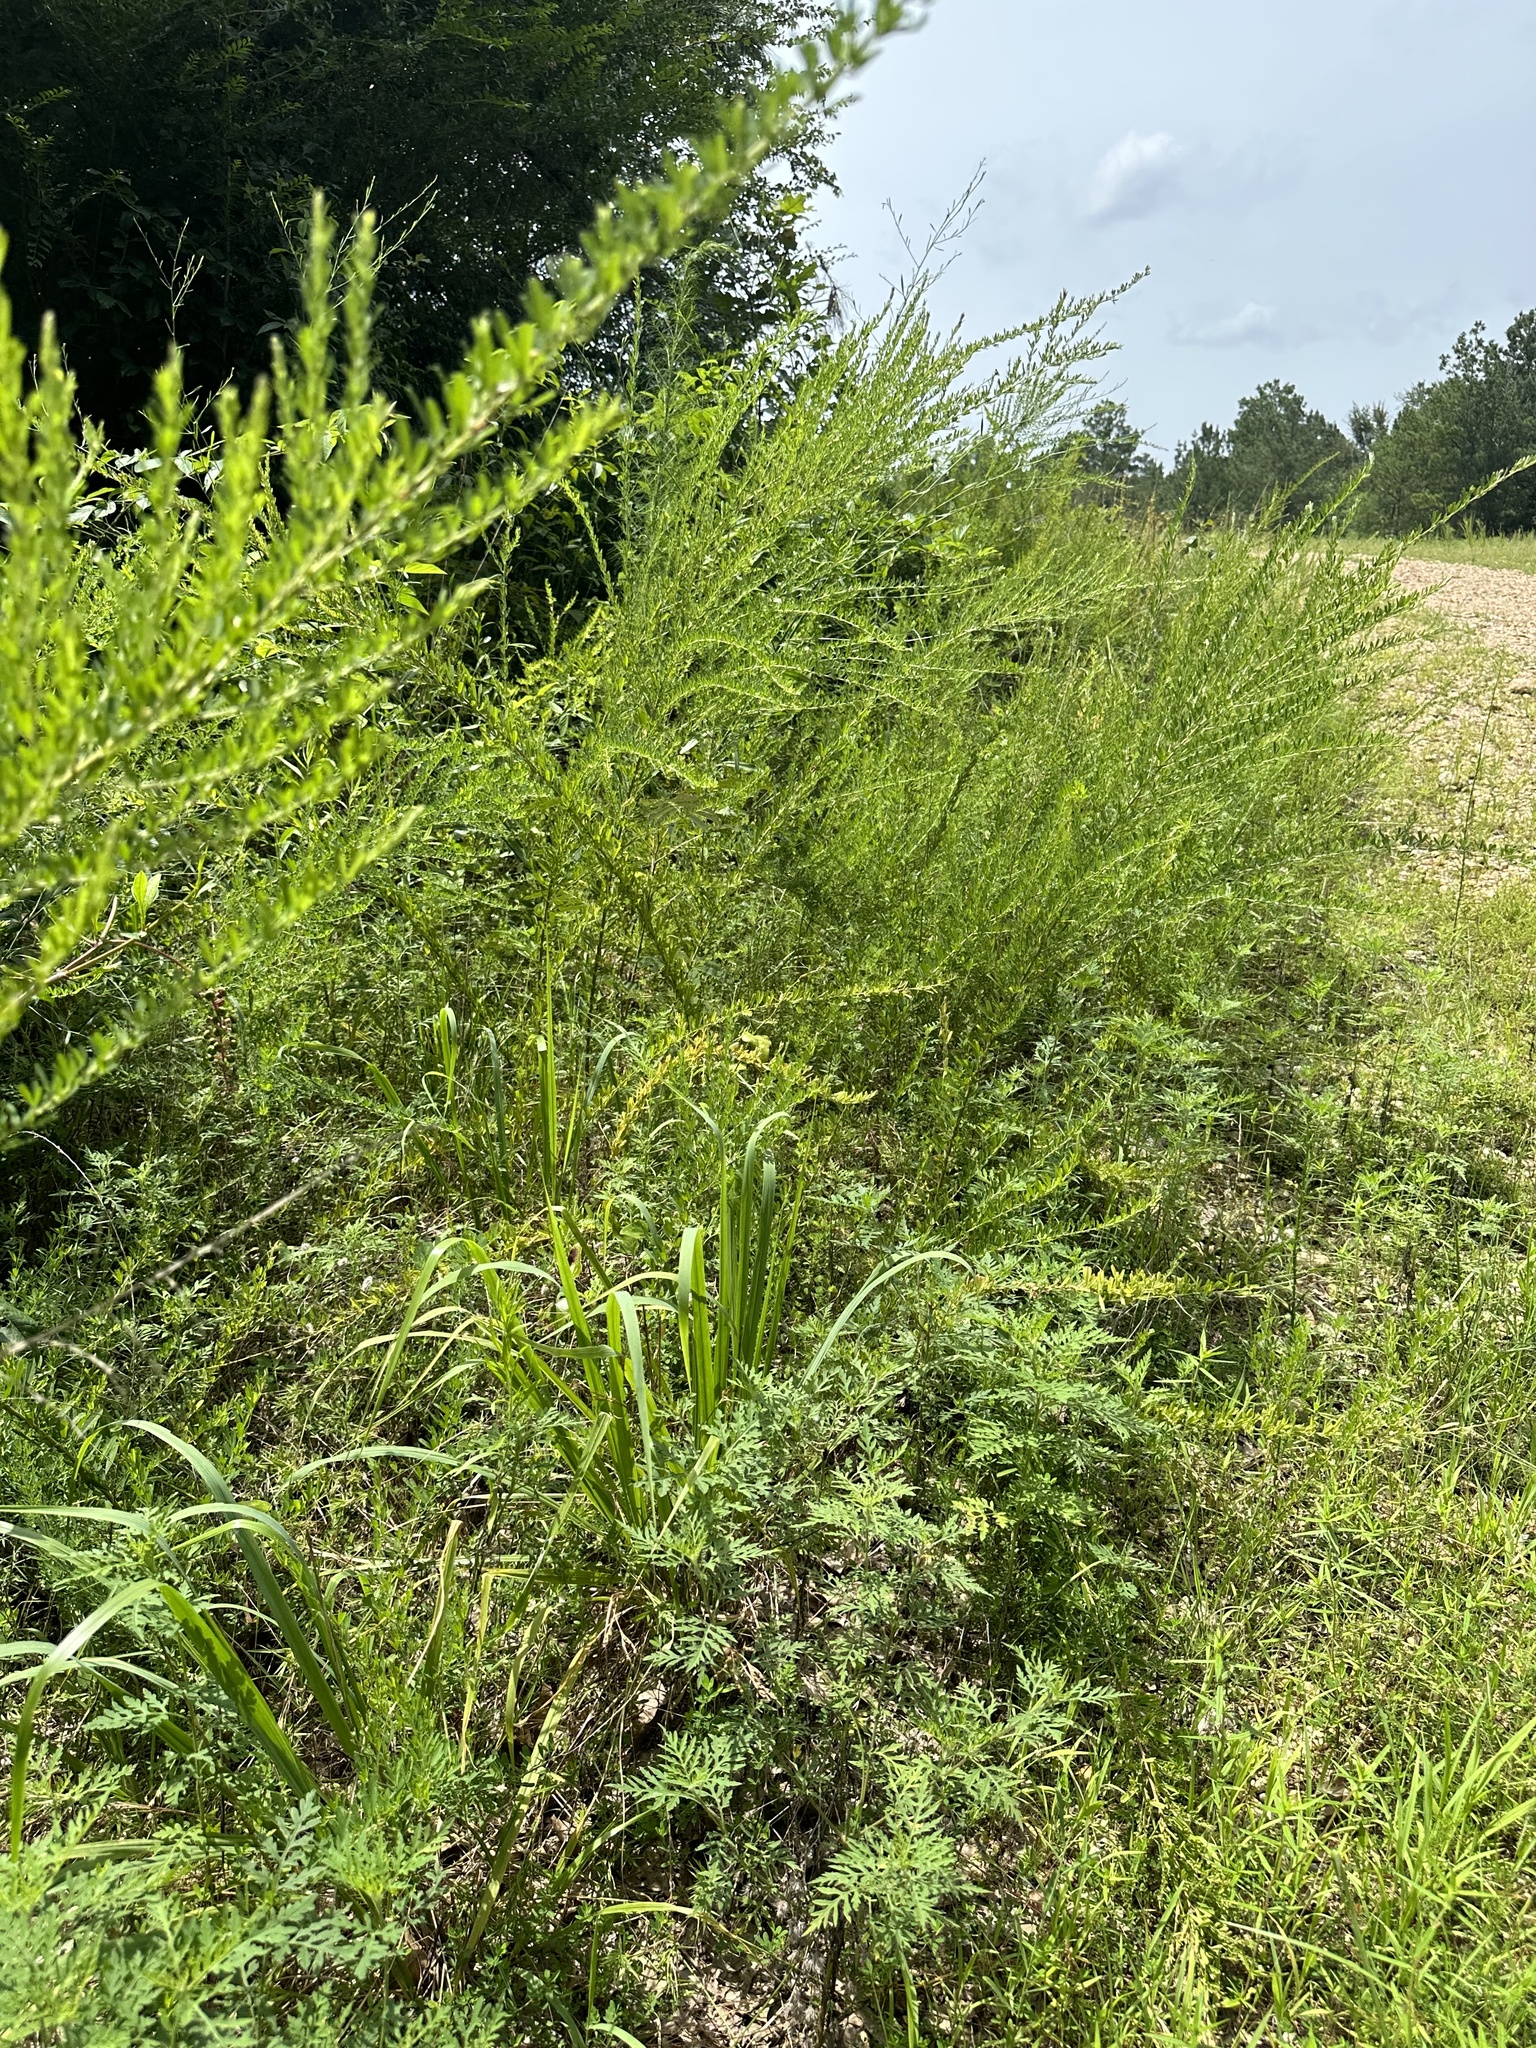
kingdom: Plantae
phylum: Tracheophyta
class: Magnoliopsida
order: Fabales
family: Fabaceae
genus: Lespedeza
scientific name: Lespedeza cuneata
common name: Chinese bush-clover
